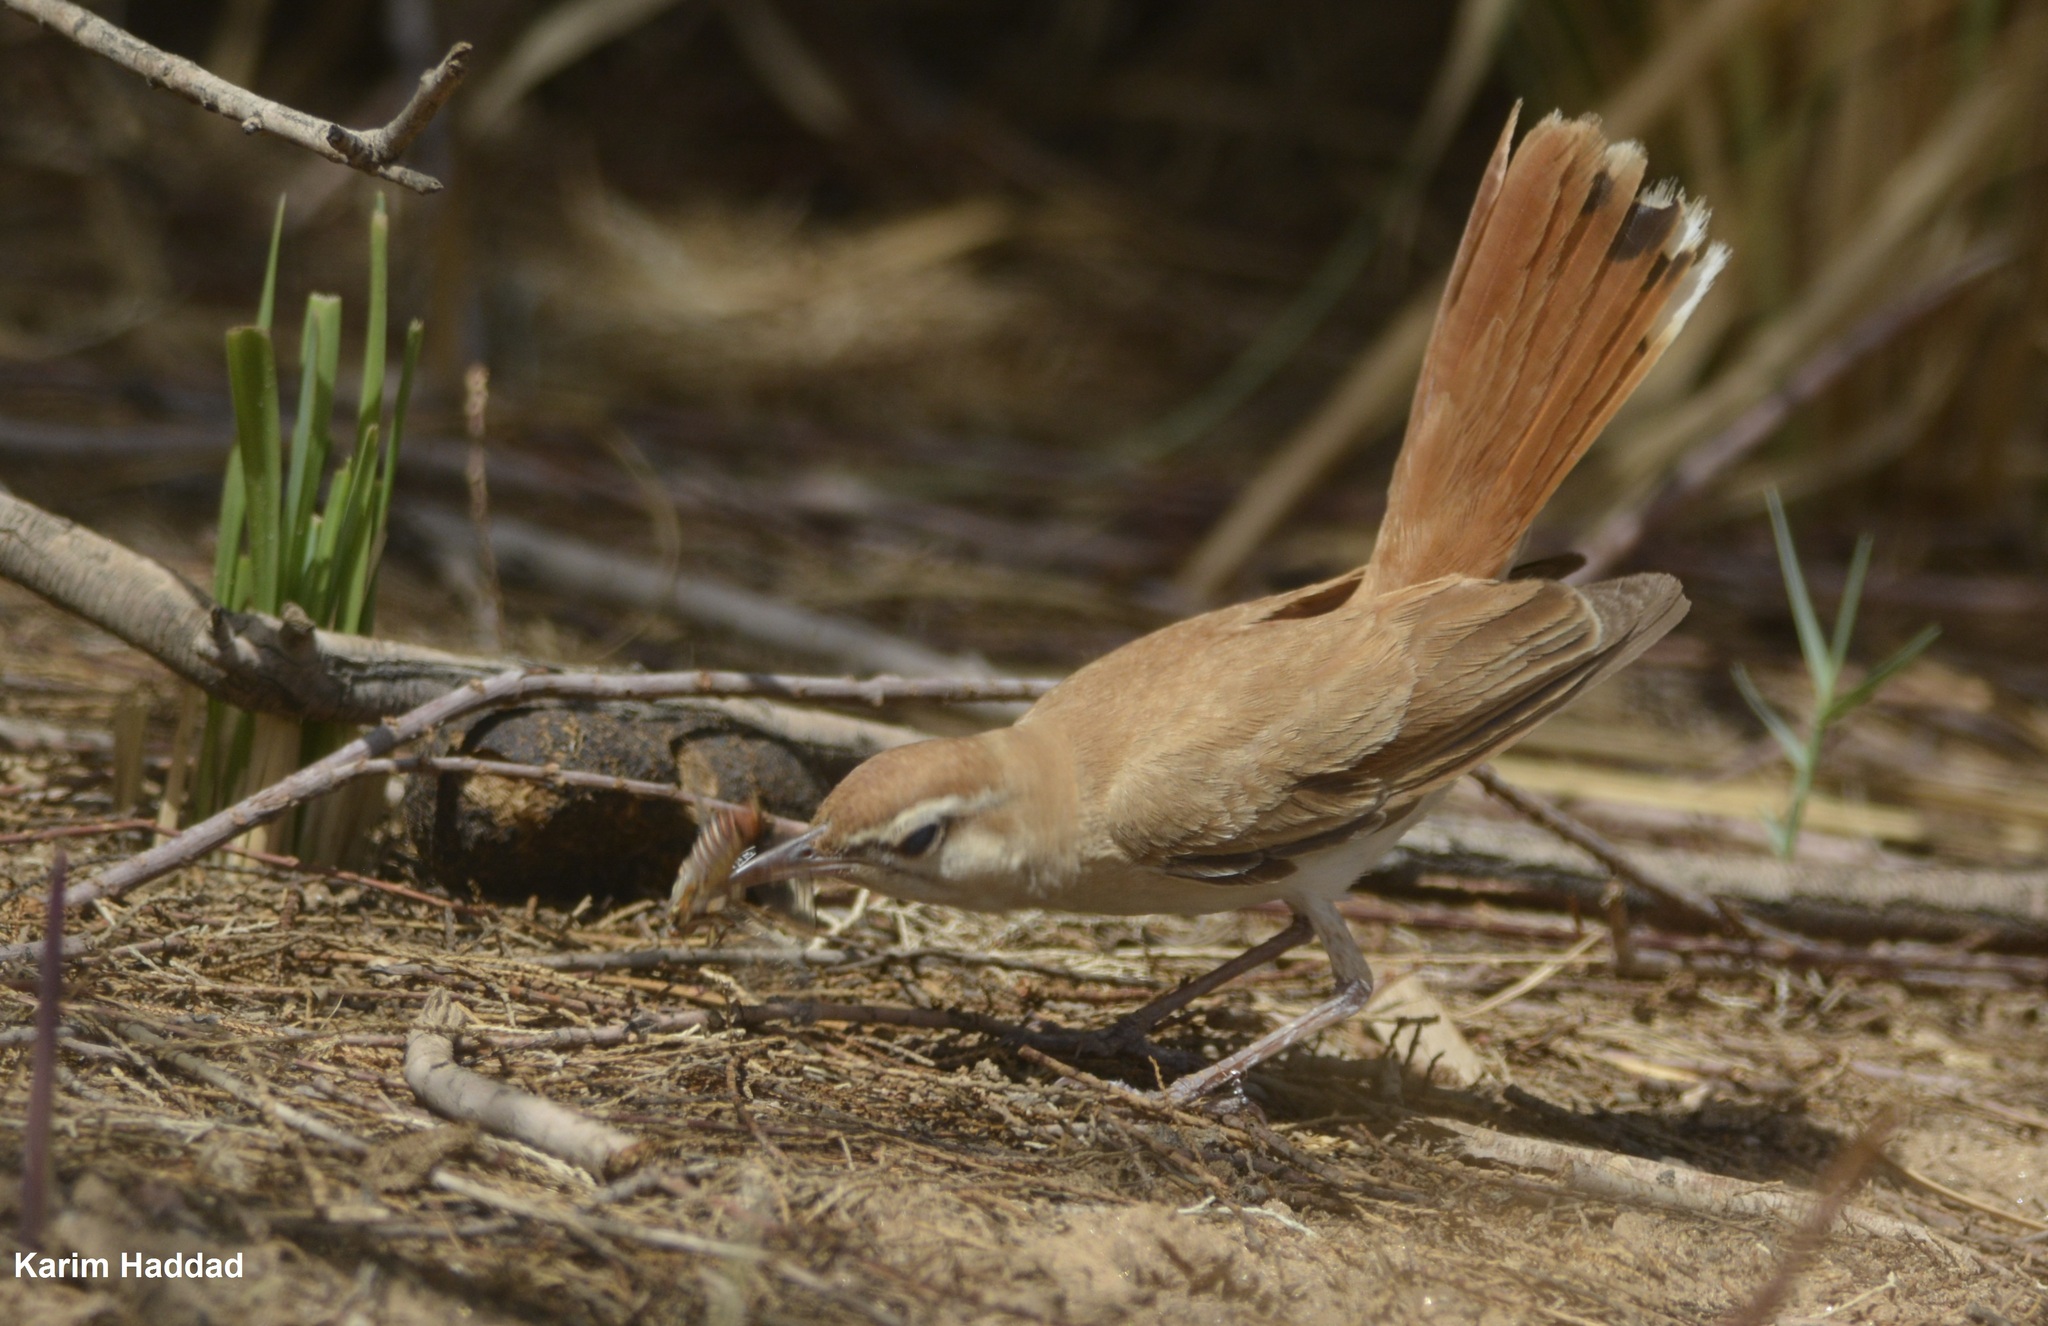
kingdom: Animalia
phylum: Chordata
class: Aves
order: Passeriformes
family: Muscicapidae
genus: Erythropygia
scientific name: Erythropygia galactotes
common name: Rufous-tailed scrub robin
